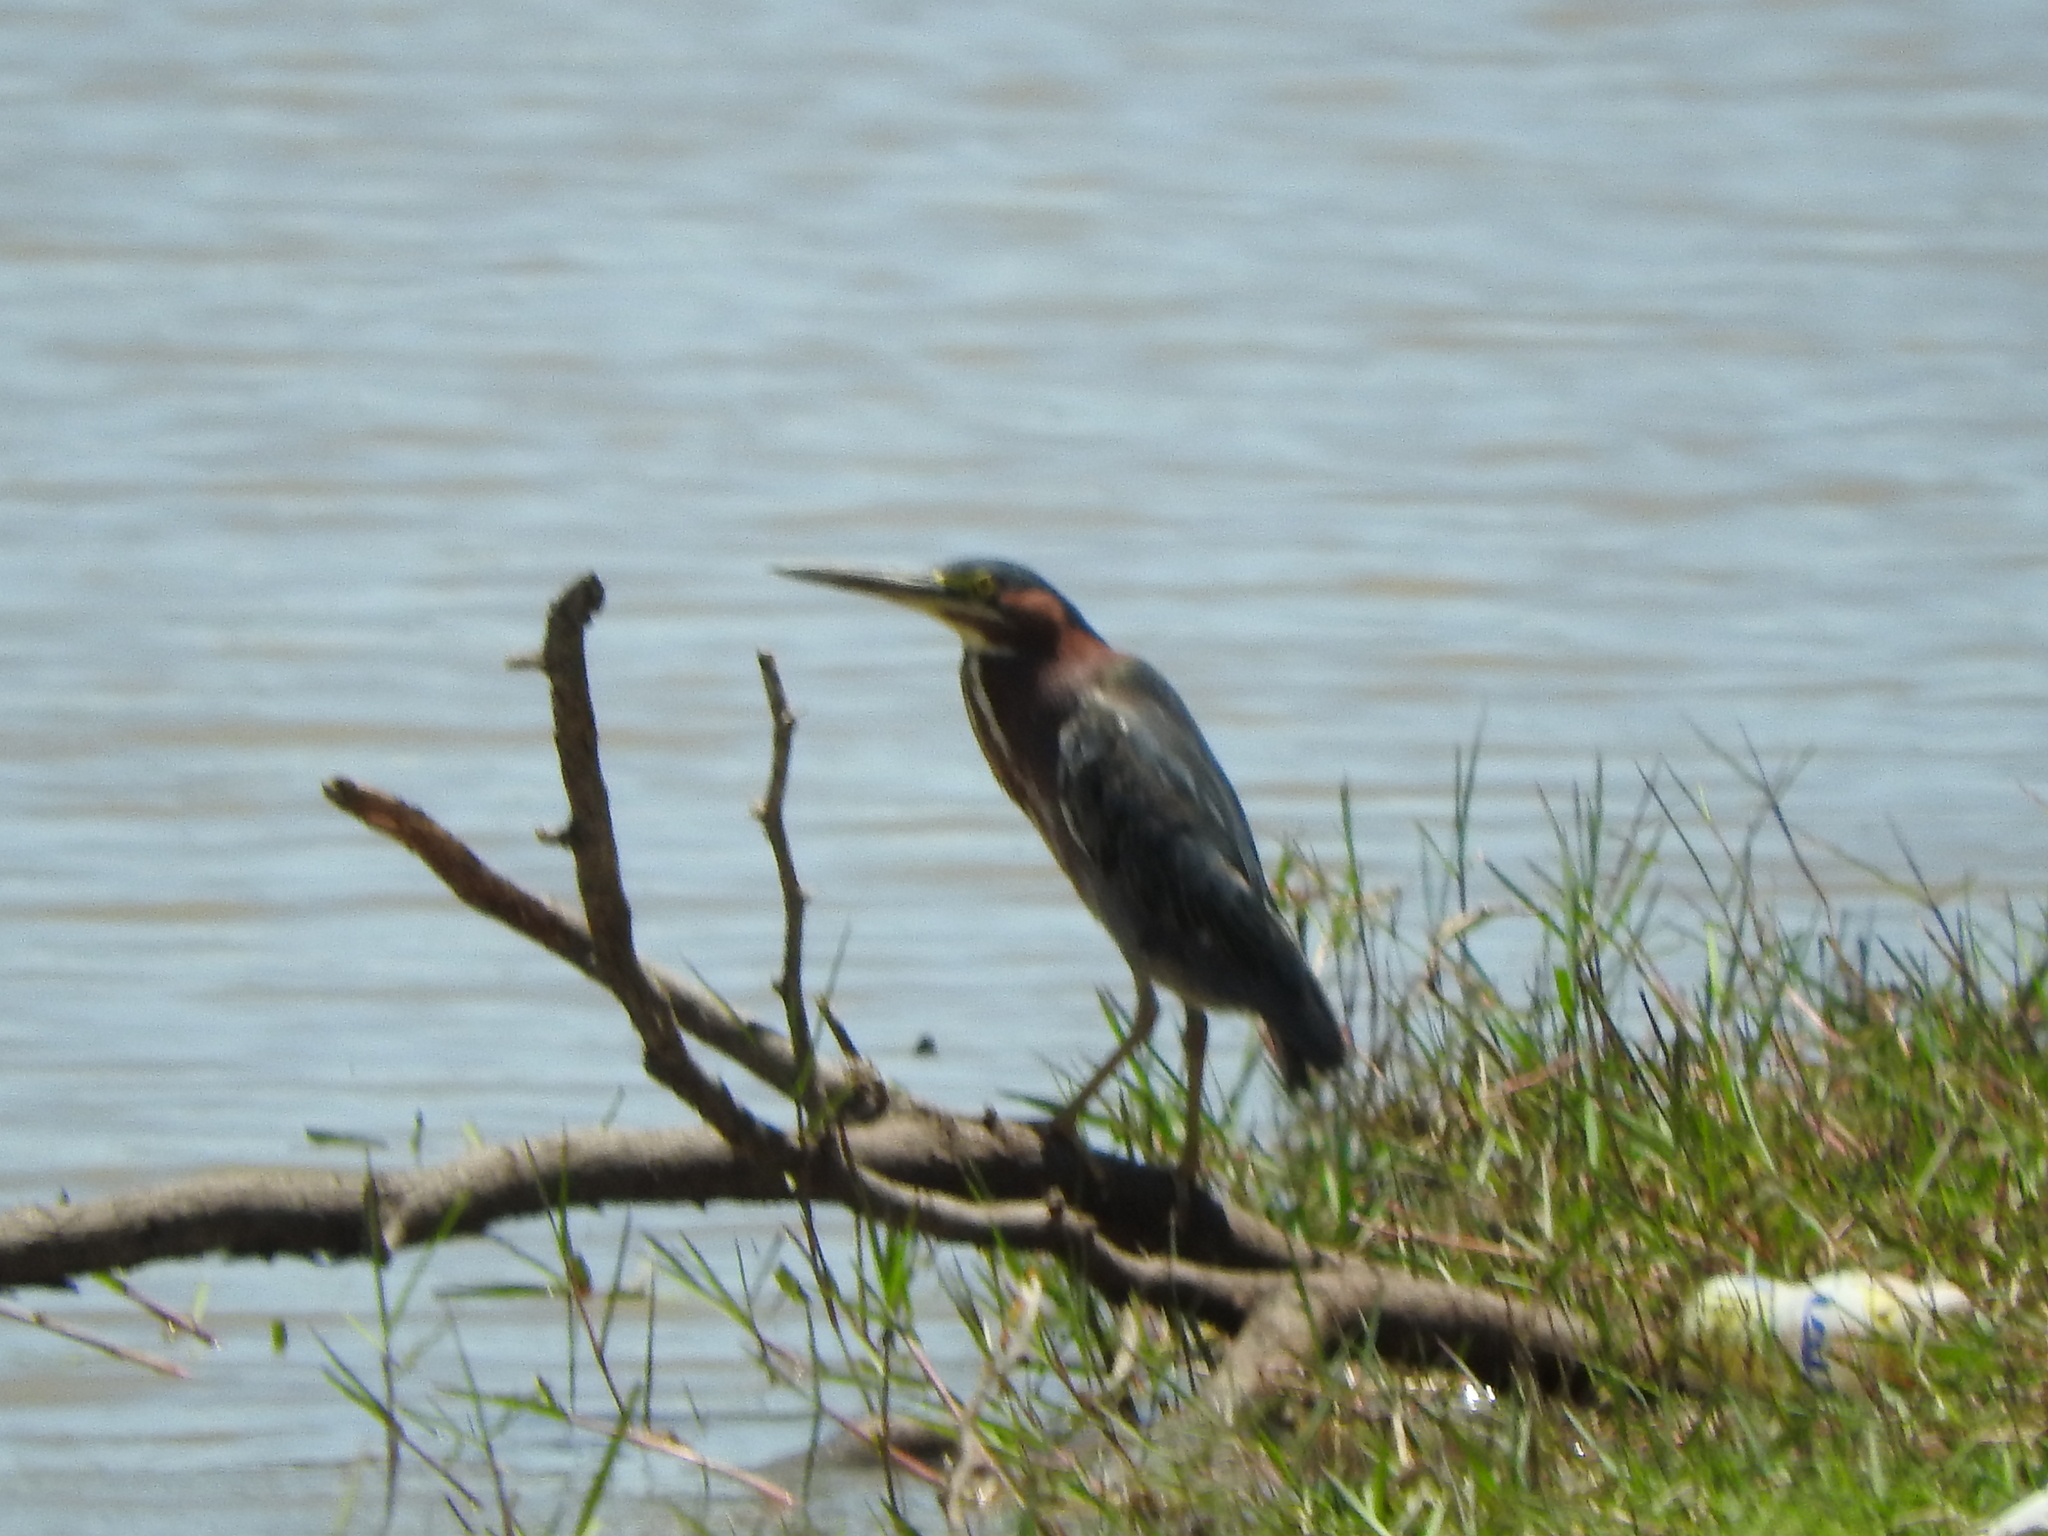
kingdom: Animalia
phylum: Chordata
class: Aves
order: Pelecaniformes
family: Ardeidae
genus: Butorides
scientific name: Butorides virescens
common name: Green heron
